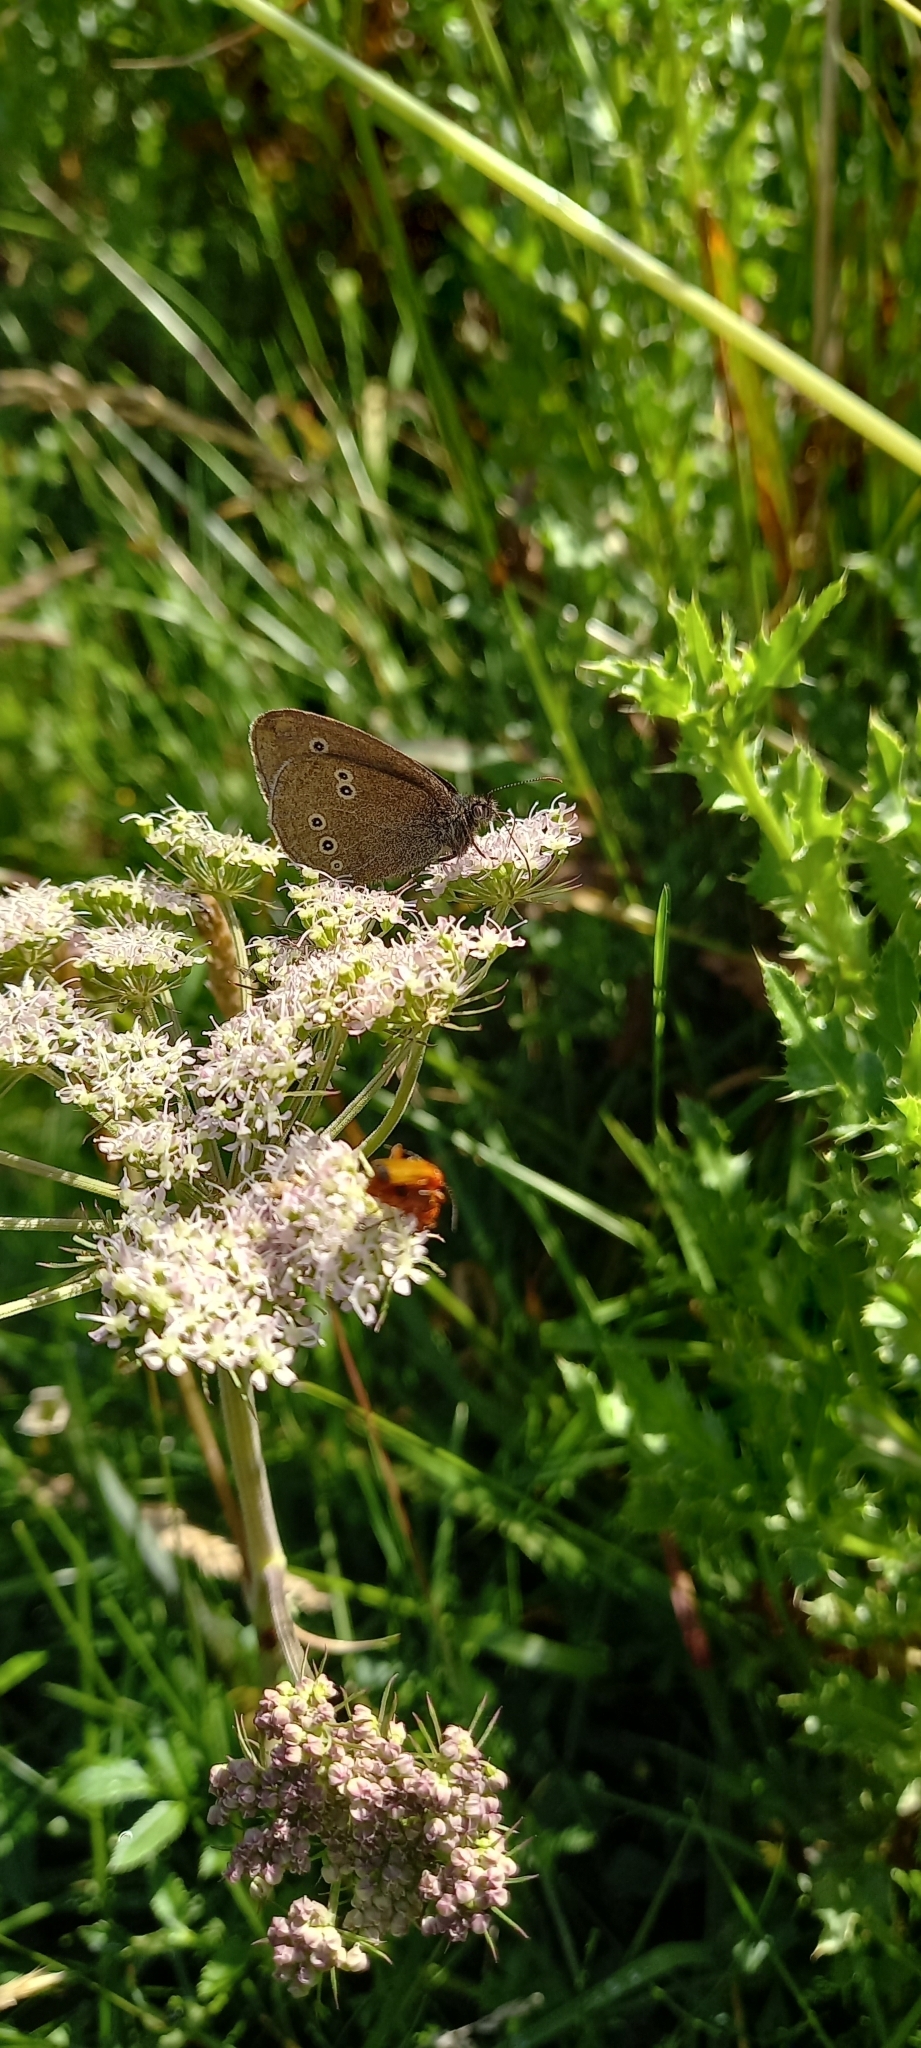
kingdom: Animalia
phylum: Arthropoda
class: Insecta
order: Lepidoptera
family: Nymphalidae
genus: Aphantopus
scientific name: Aphantopus hyperantus
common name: Ringlet
